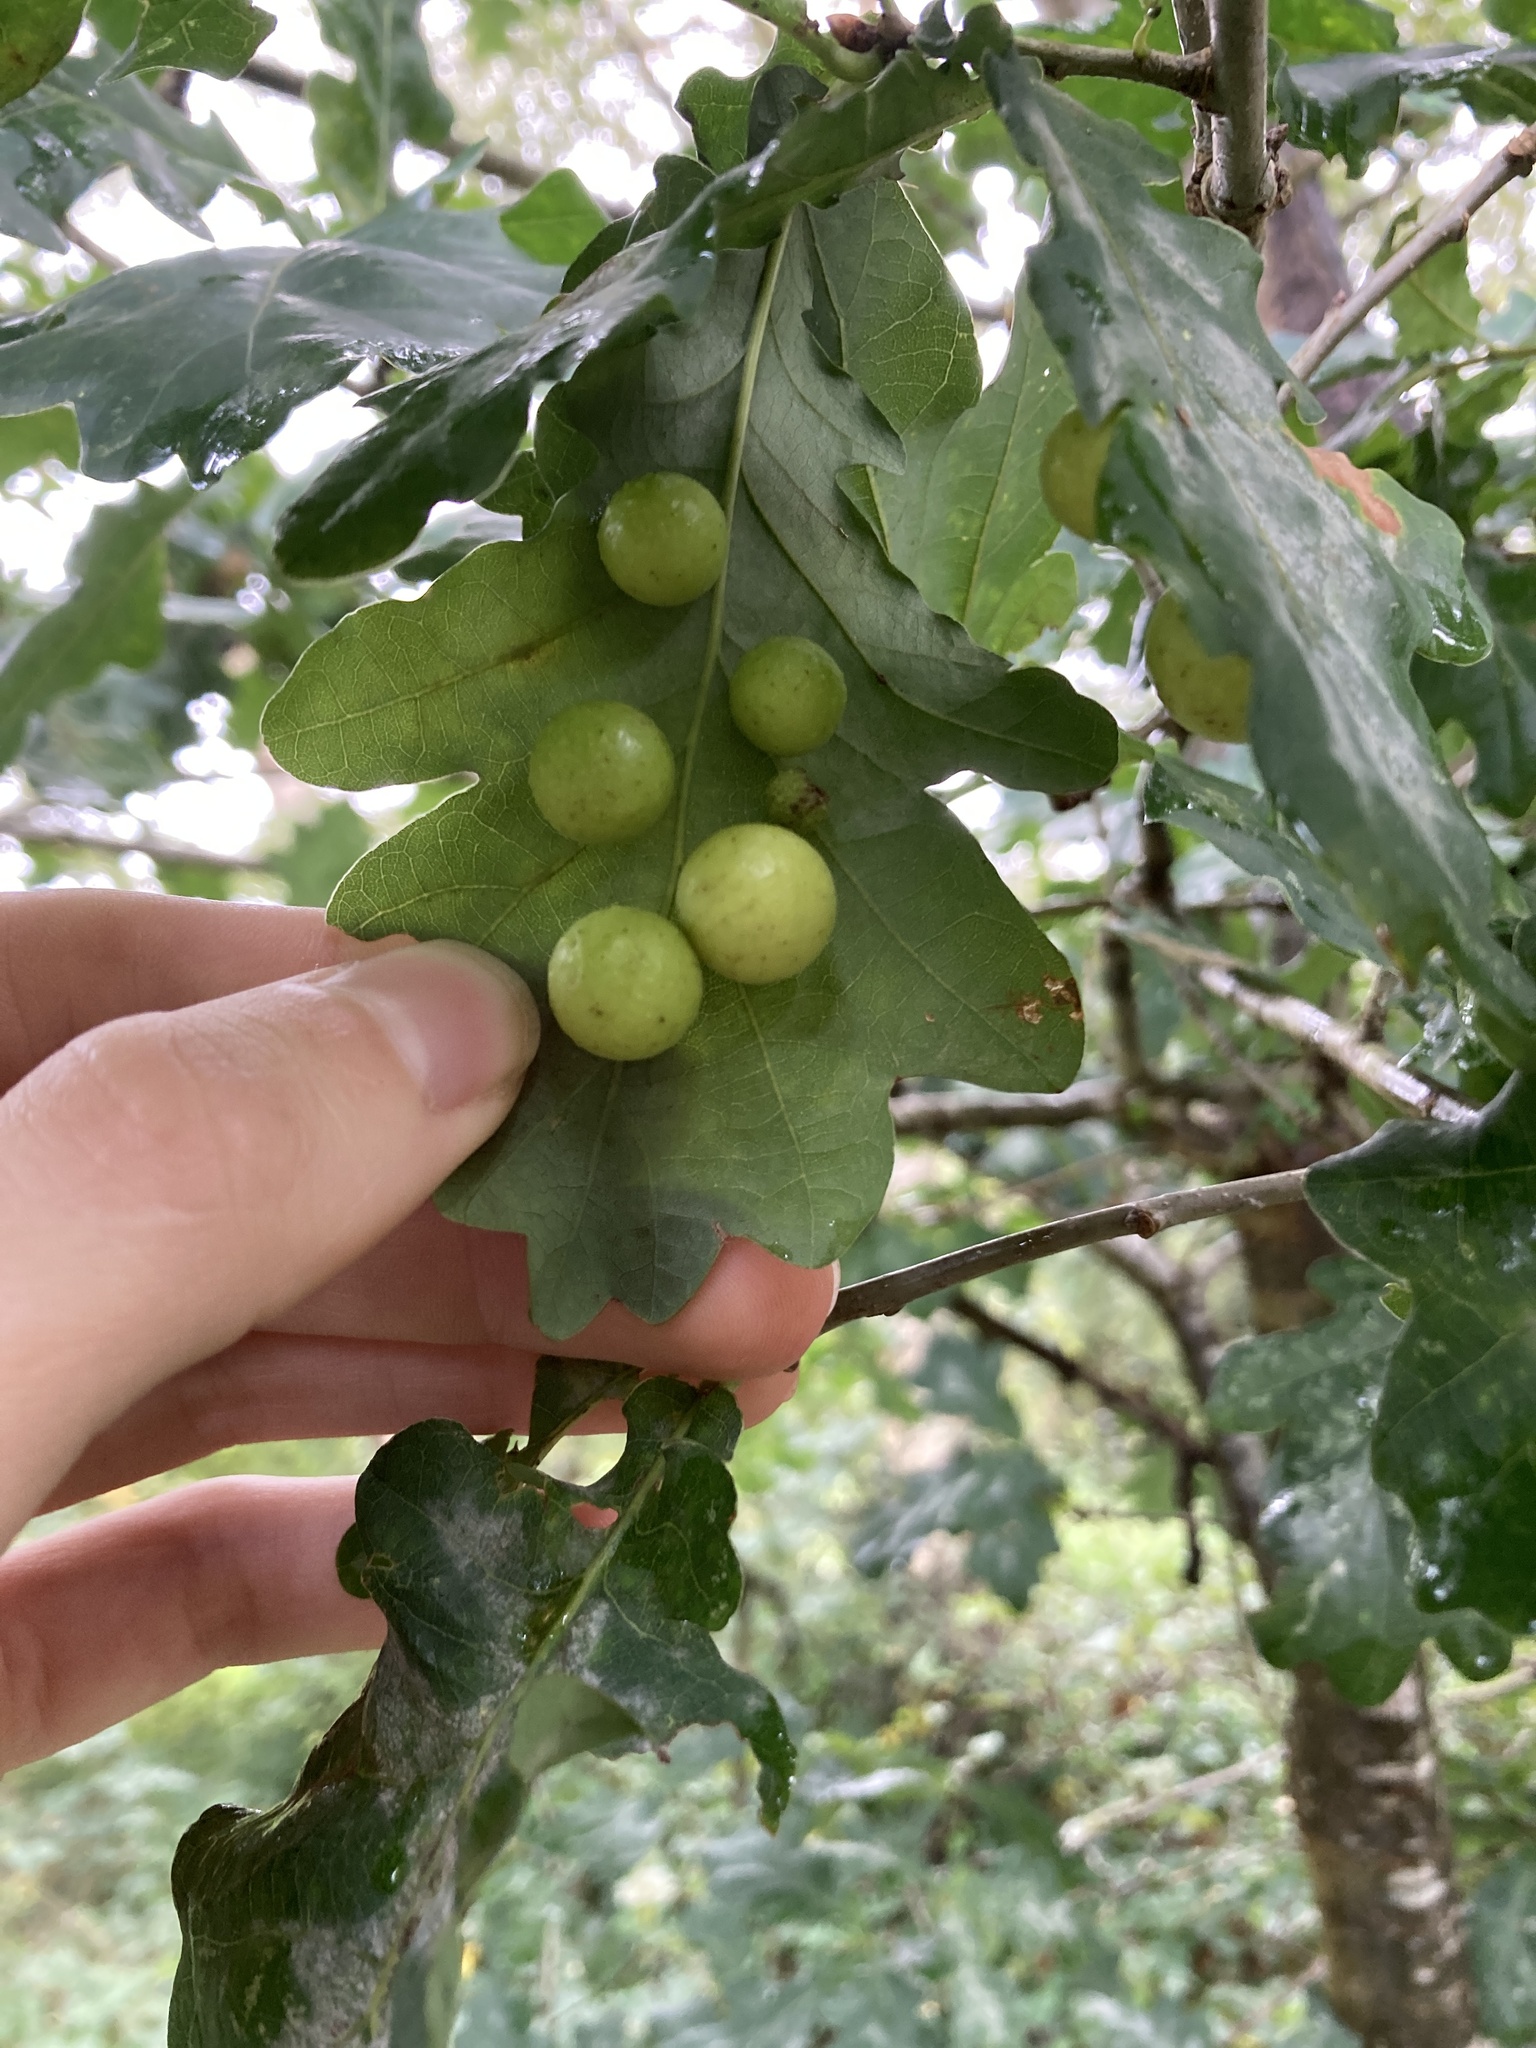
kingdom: Animalia
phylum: Arthropoda
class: Insecta
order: Hymenoptera
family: Cynipidae
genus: Cynips
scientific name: Cynips quercusfolii
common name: Cherry gall
